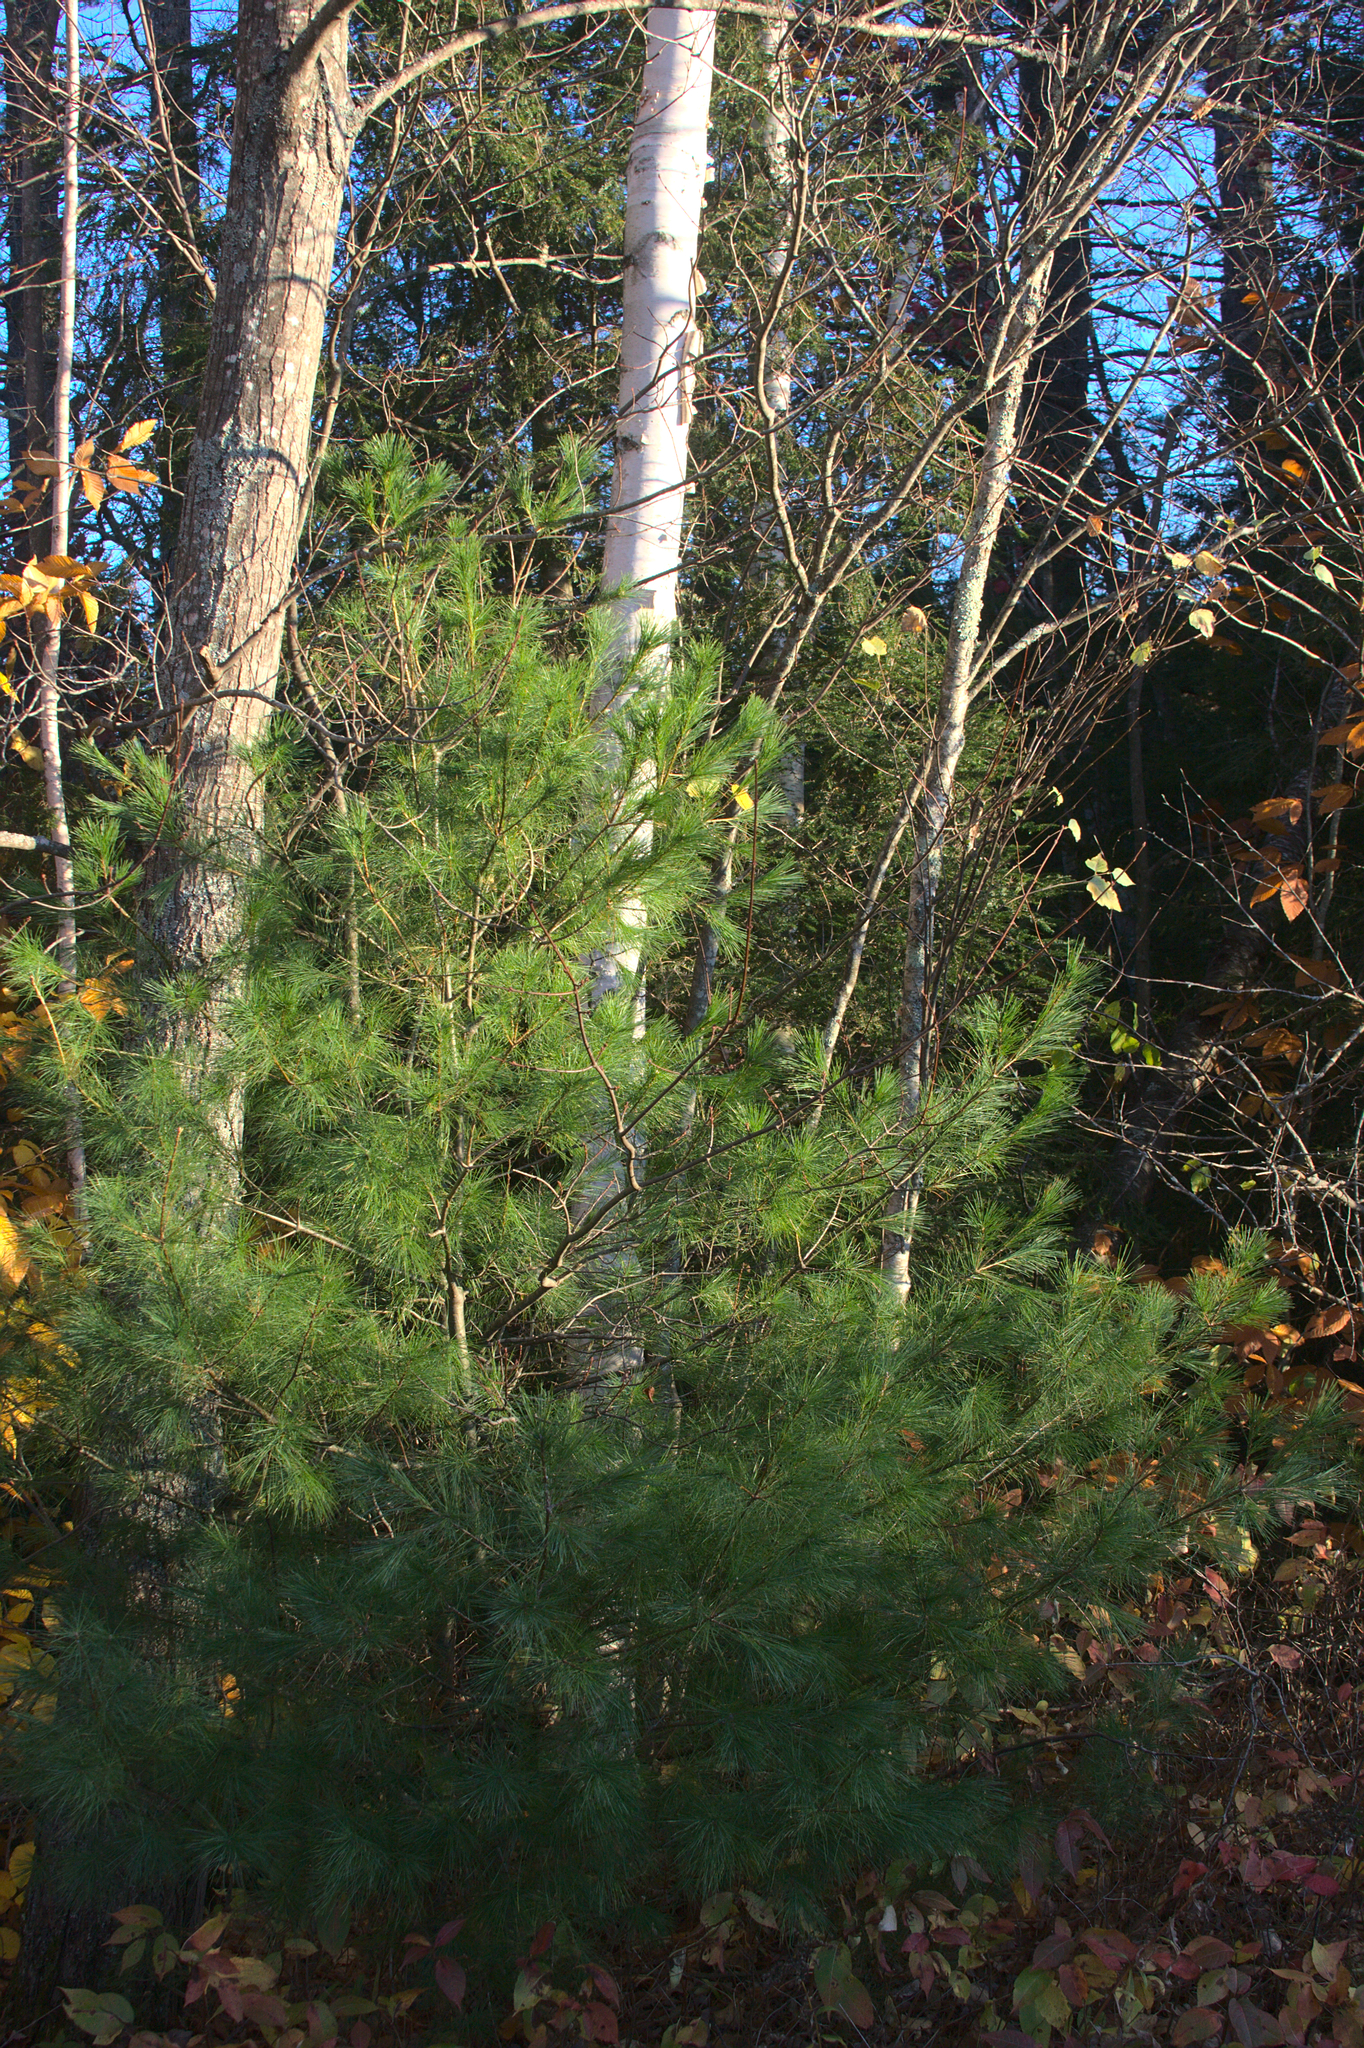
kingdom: Plantae
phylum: Tracheophyta
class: Pinopsida
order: Pinales
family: Pinaceae
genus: Pinus
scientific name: Pinus strobus
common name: Weymouth pine
